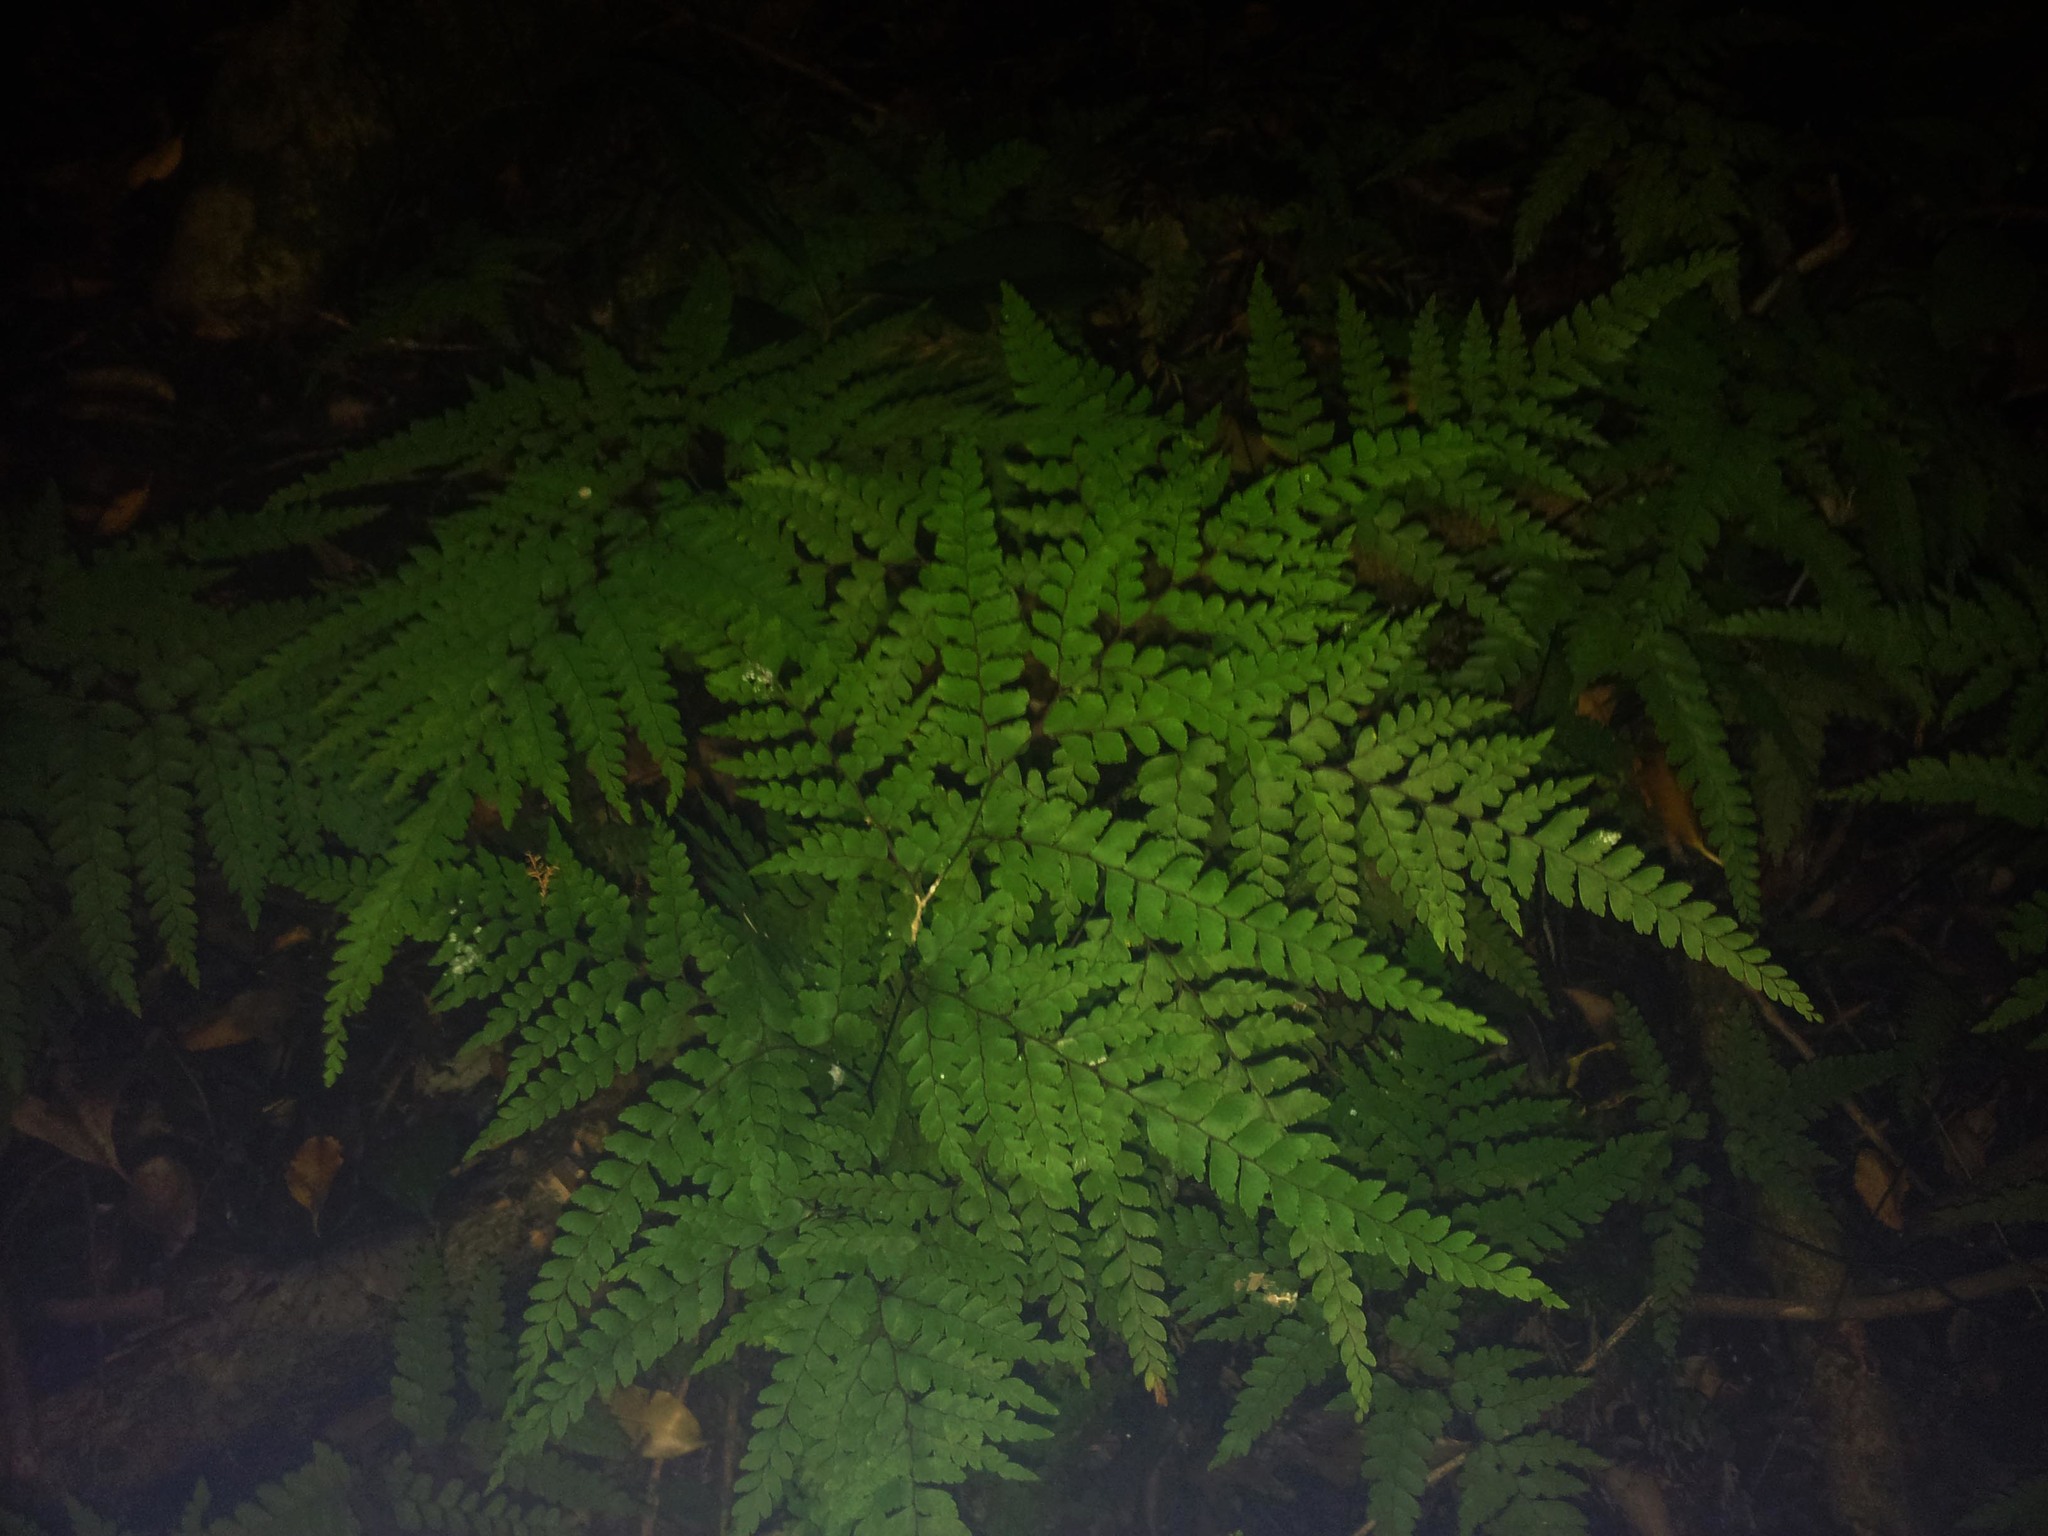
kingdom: Plantae
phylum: Tracheophyta
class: Polypodiopsida
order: Polypodiales
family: Pteridaceae
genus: Adiantum
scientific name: Adiantum formosum
